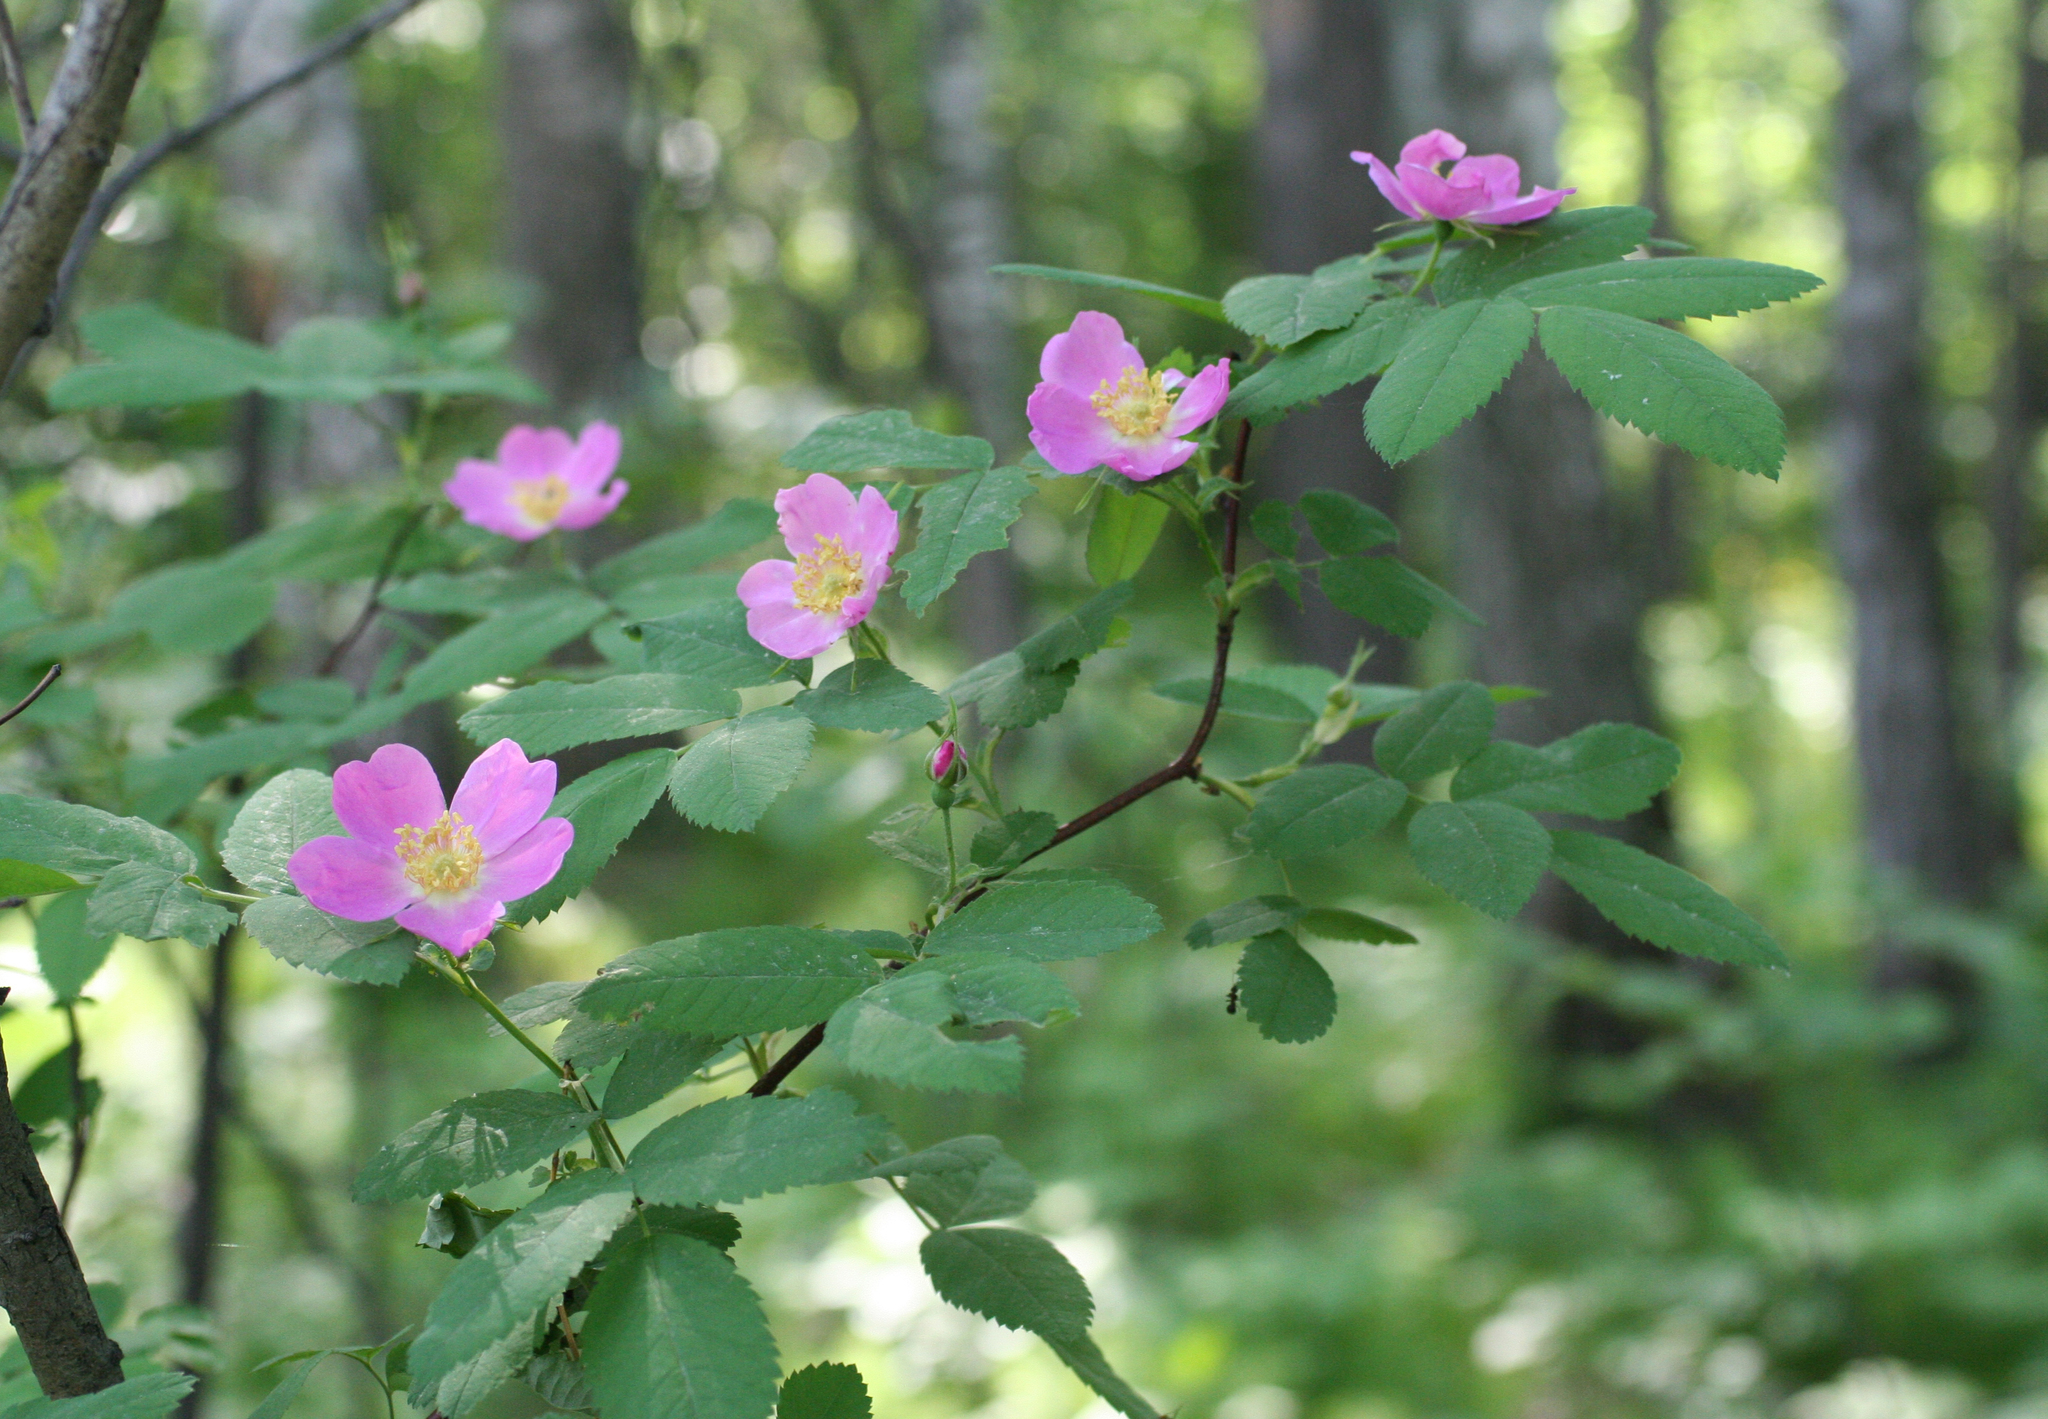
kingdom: Plantae
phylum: Tracheophyta
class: Magnoliopsida
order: Rosales
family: Rosaceae
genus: Rosa
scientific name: Rosa majalis
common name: Cinnamon rose
